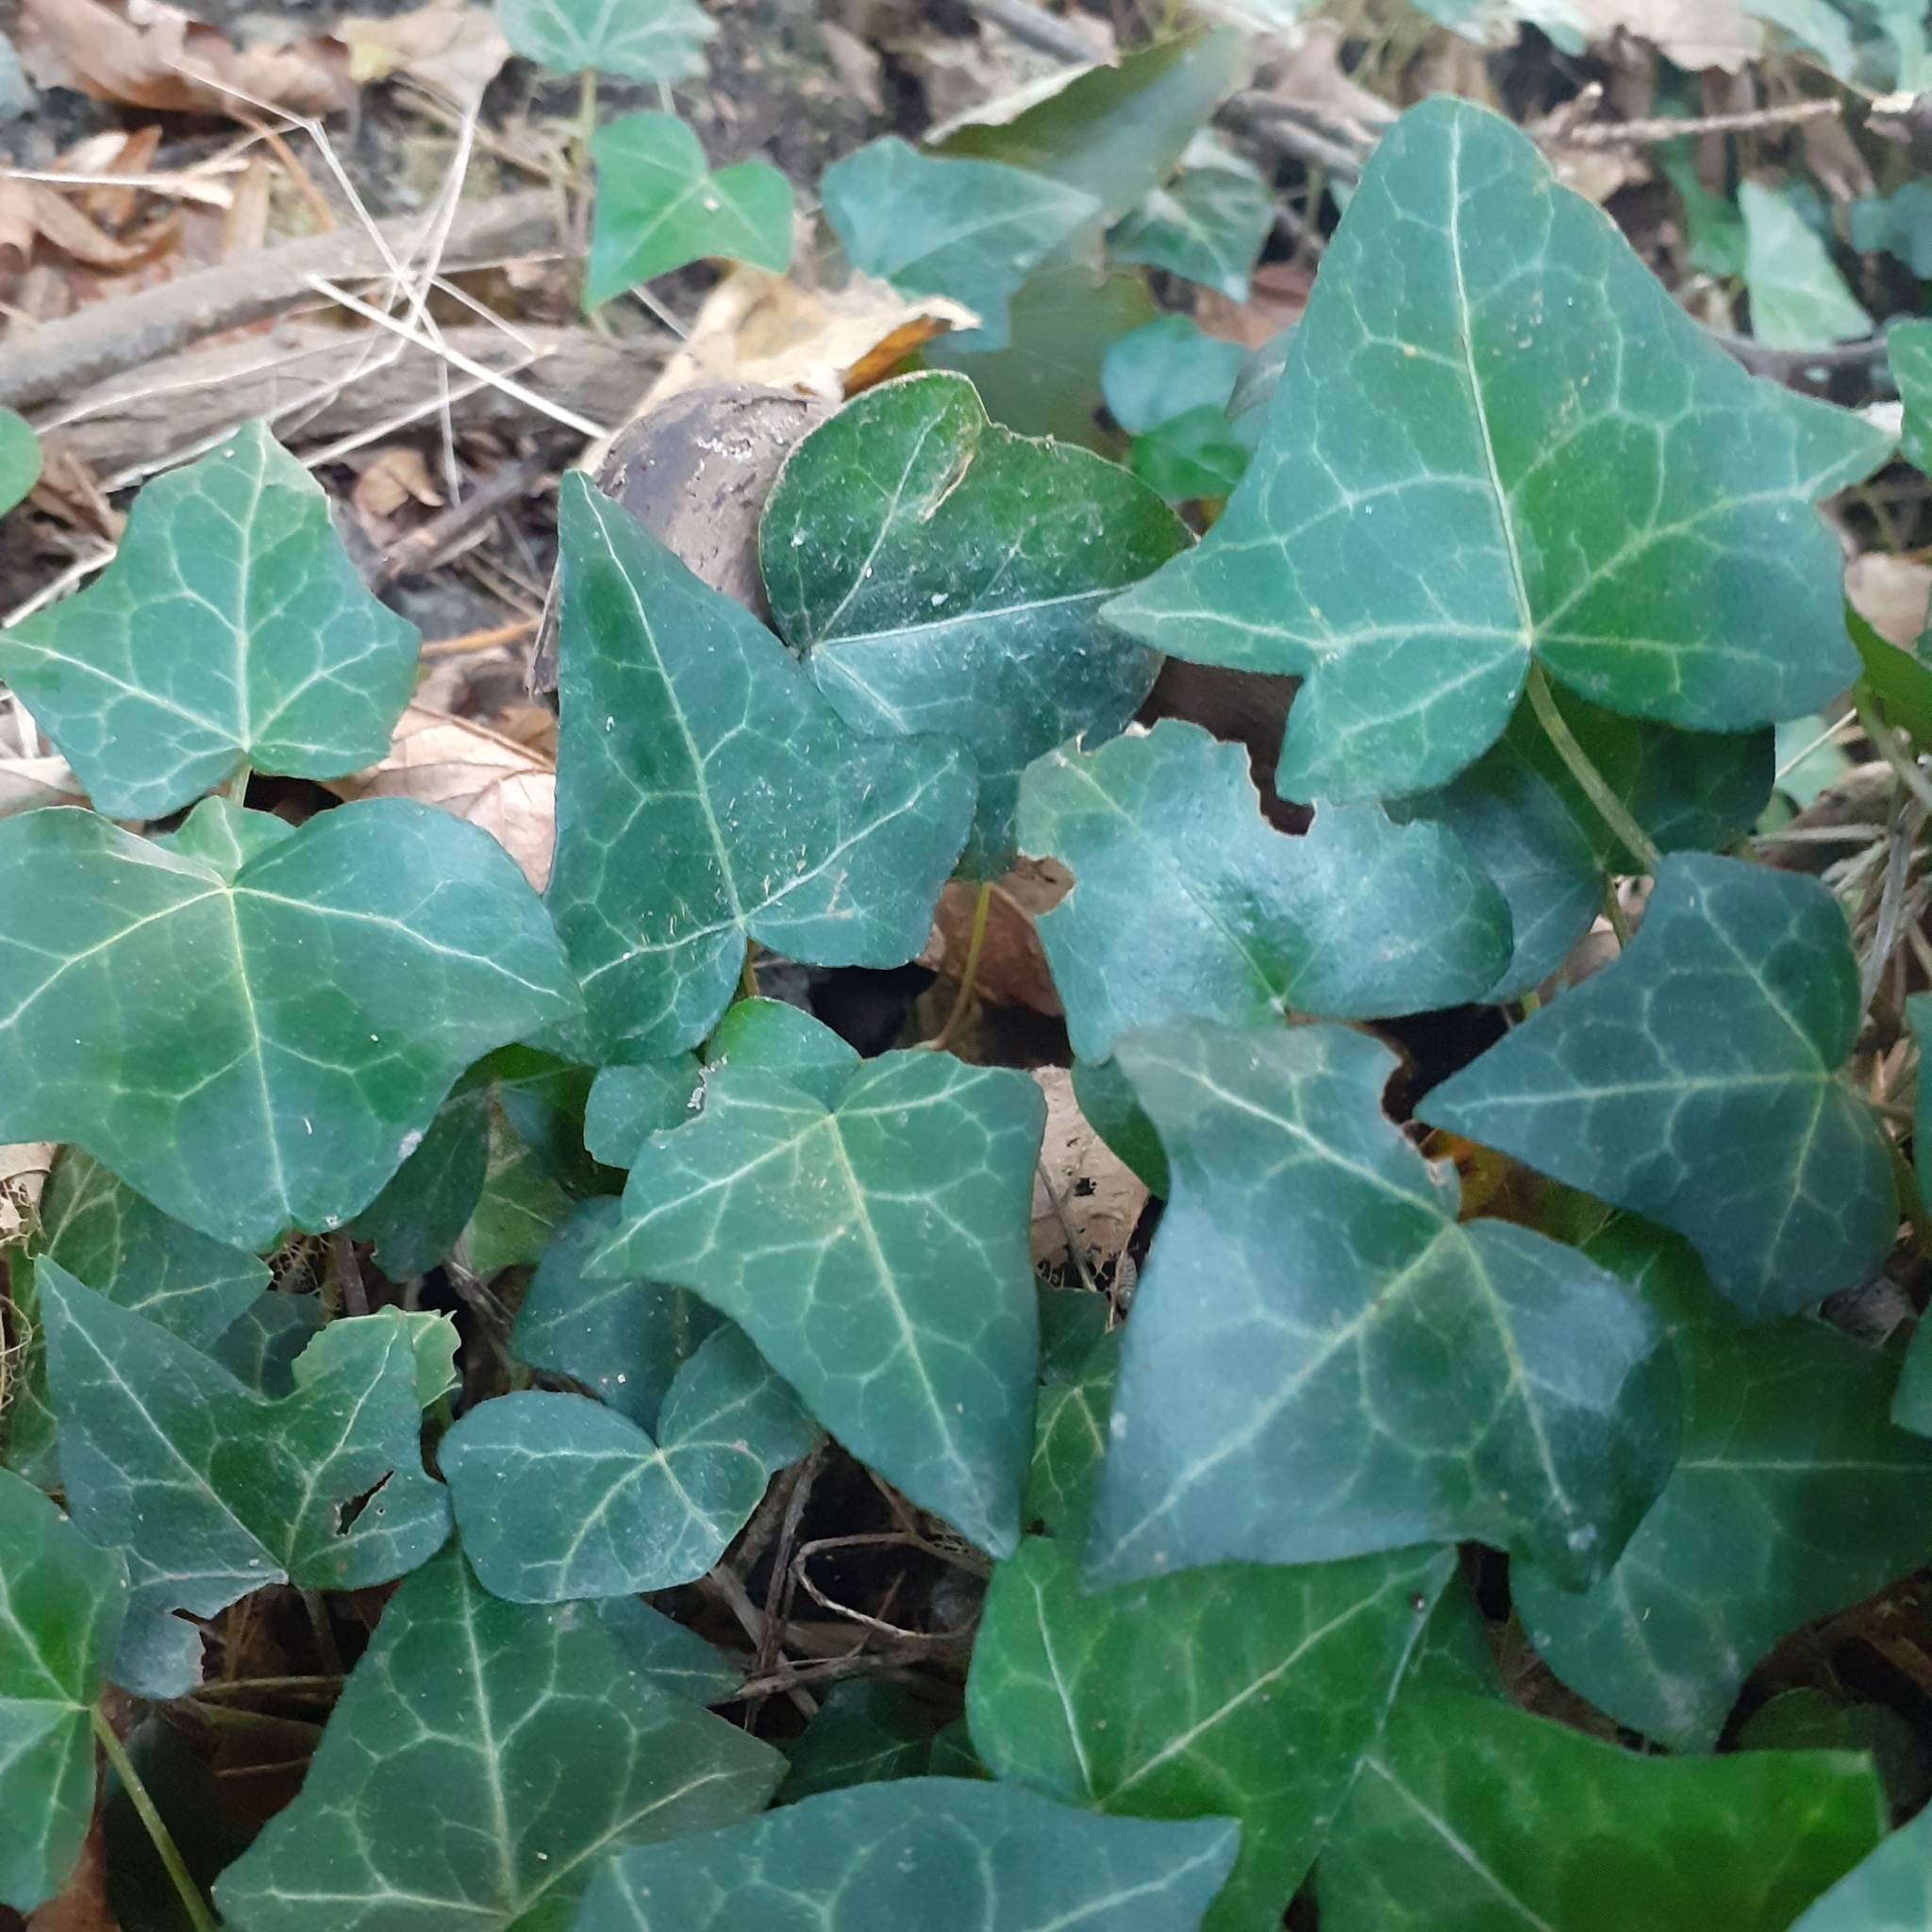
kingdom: Plantae
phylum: Tracheophyta
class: Magnoliopsida
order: Apiales
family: Araliaceae
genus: Hedera
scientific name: Hedera helix
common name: Ivy
